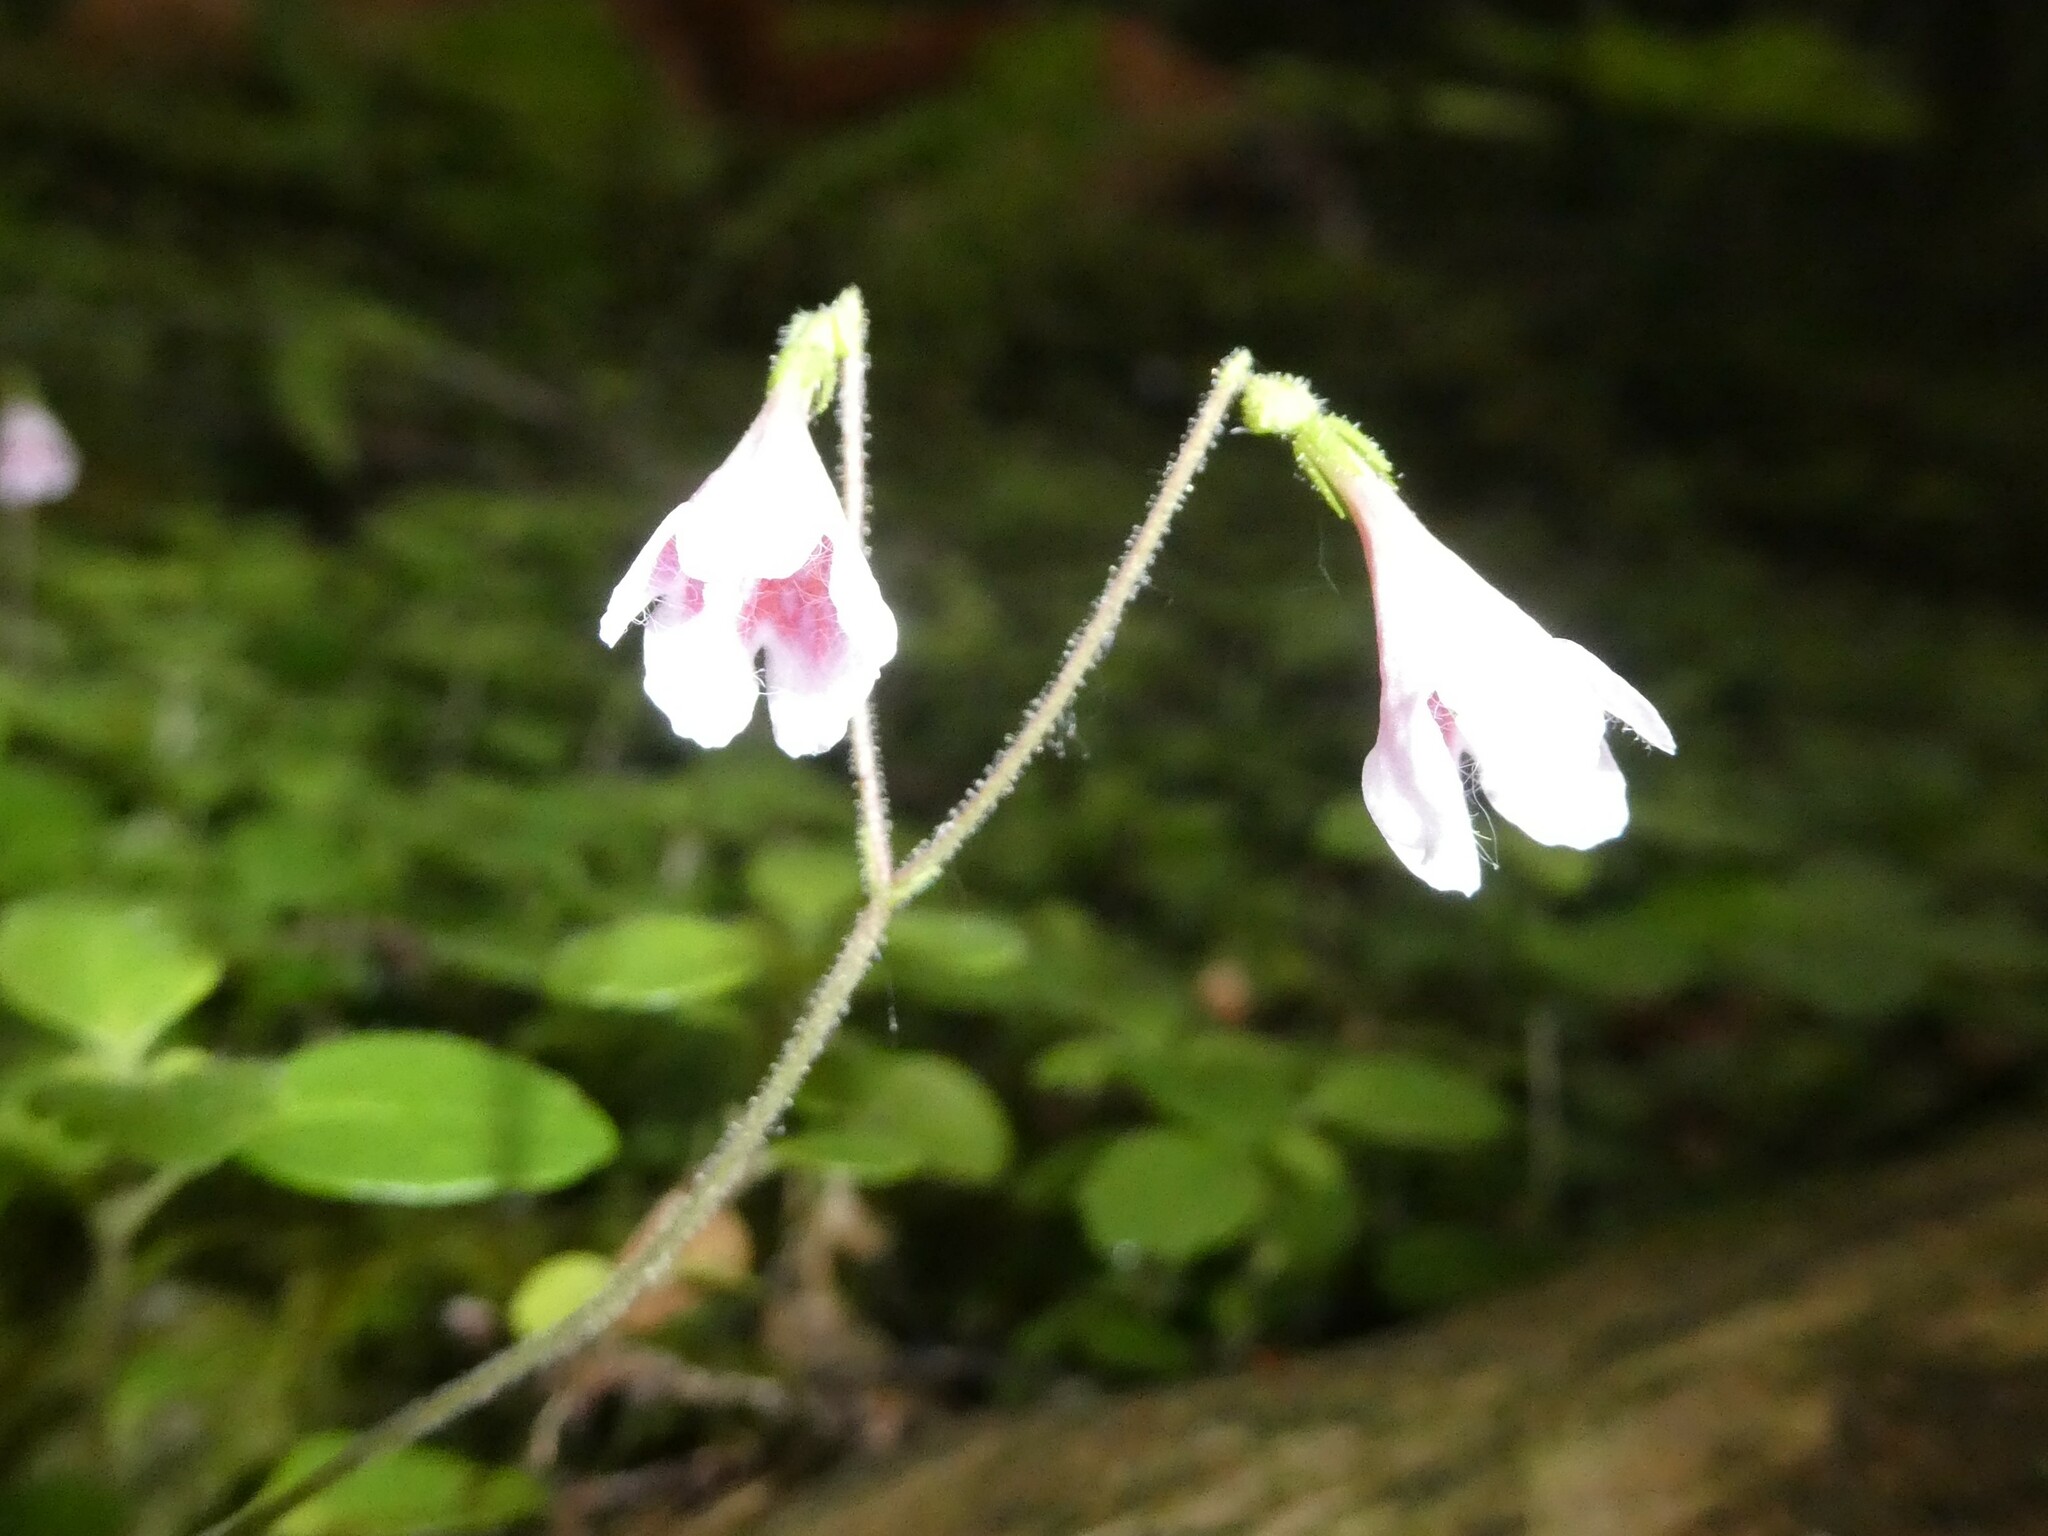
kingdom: Plantae
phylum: Tracheophyta
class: Magnoliopsida
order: Dipsacales
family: Caprifoliaceae
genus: Linnaea
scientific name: Linnaea borealis
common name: Twinflower
